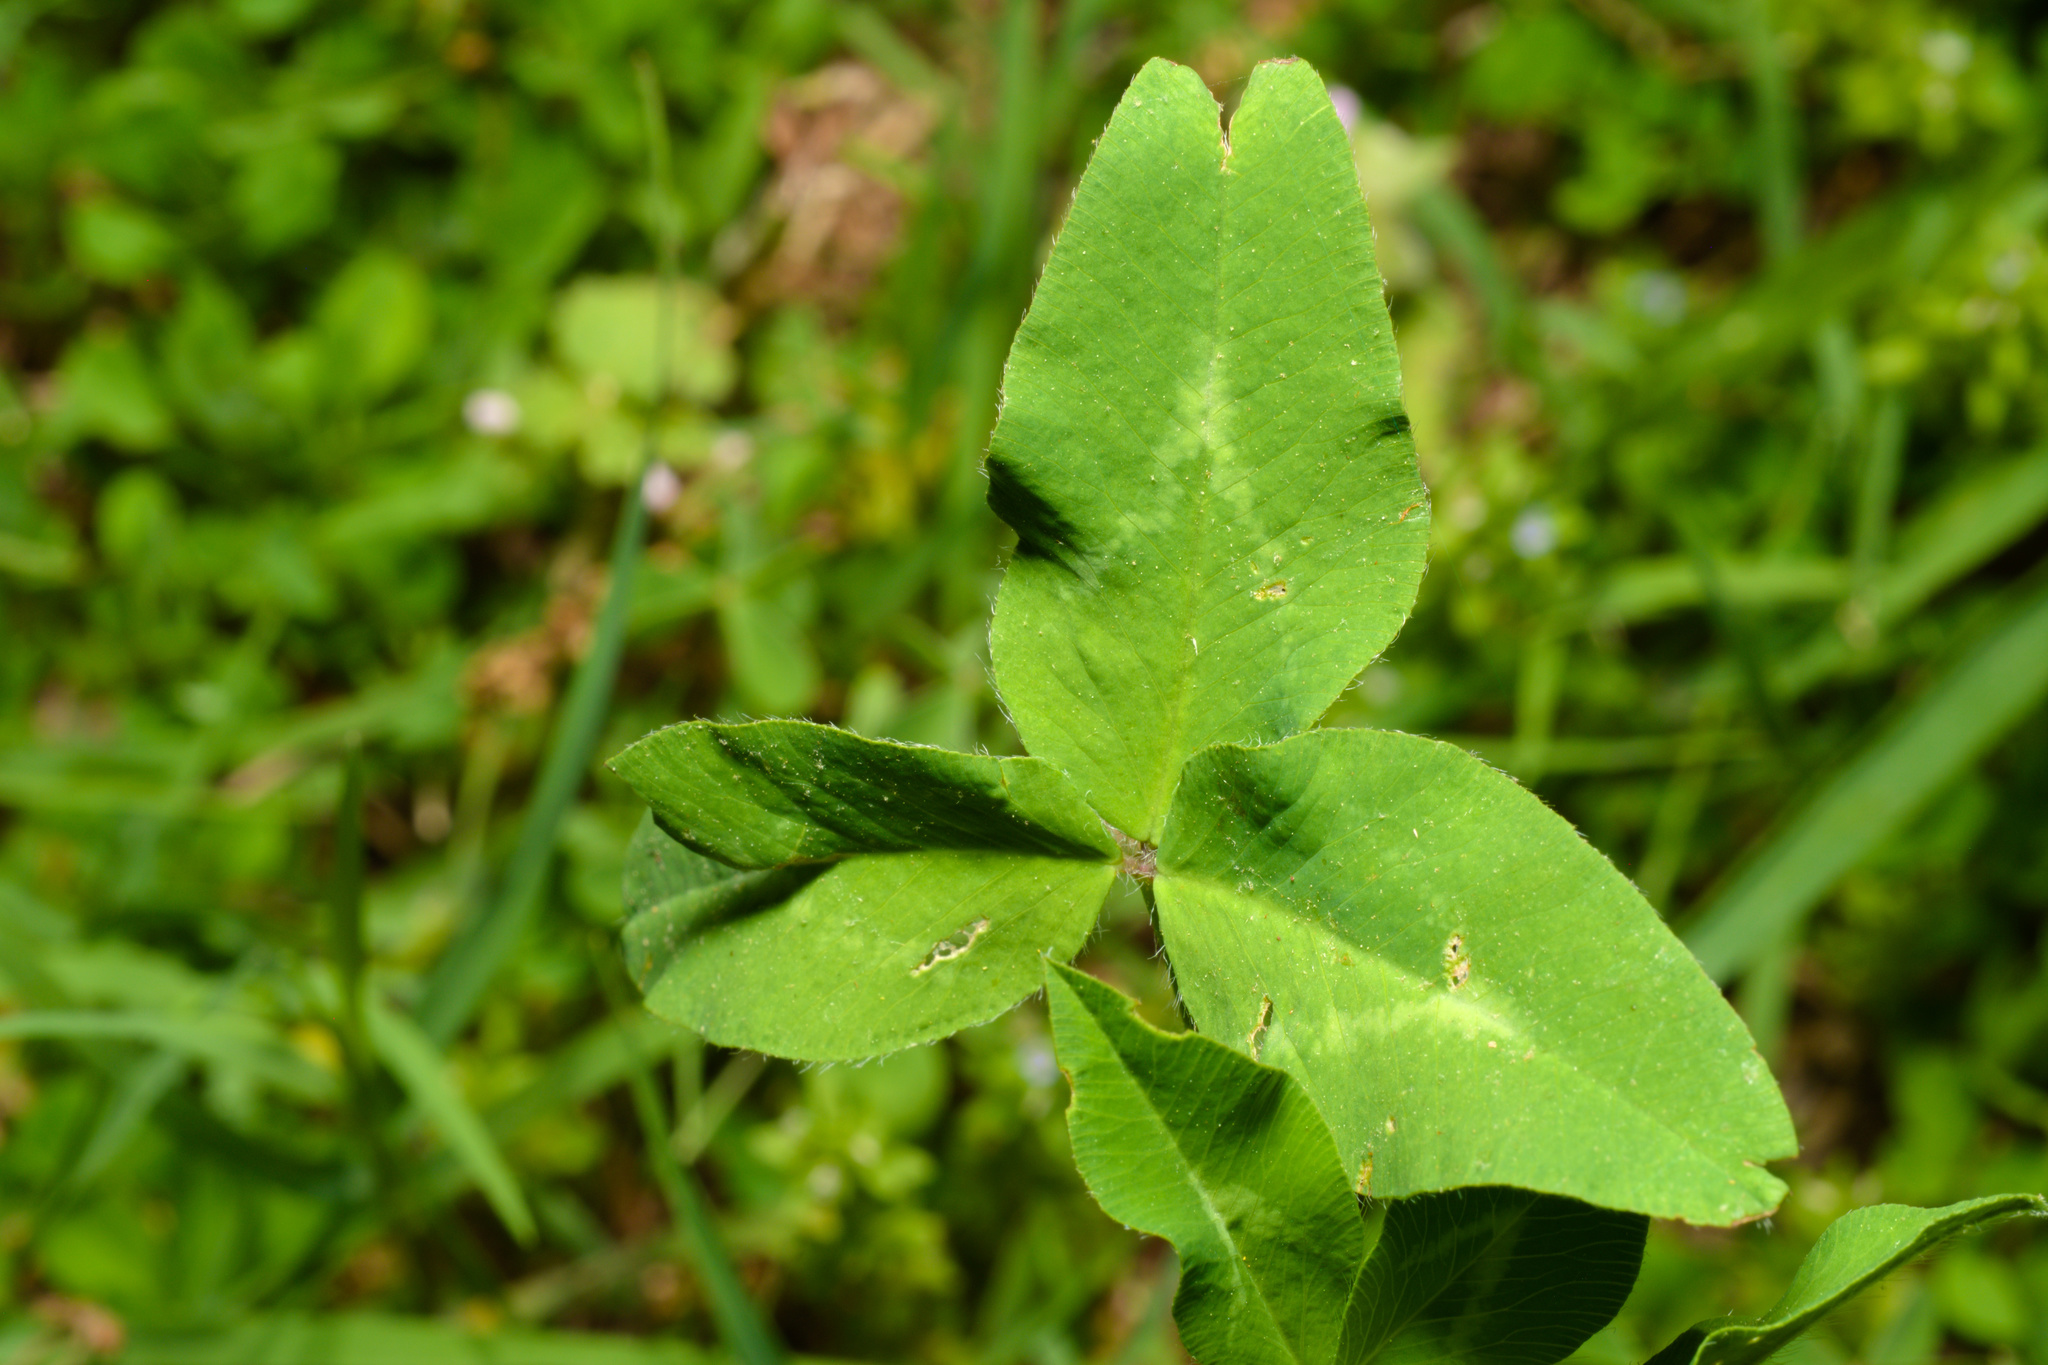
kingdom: Plantae
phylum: Tracheophyta
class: Magnoliopsida
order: Fabales
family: Fabaceae
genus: Trifolium
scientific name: Trifolium pratense
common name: Red clover
